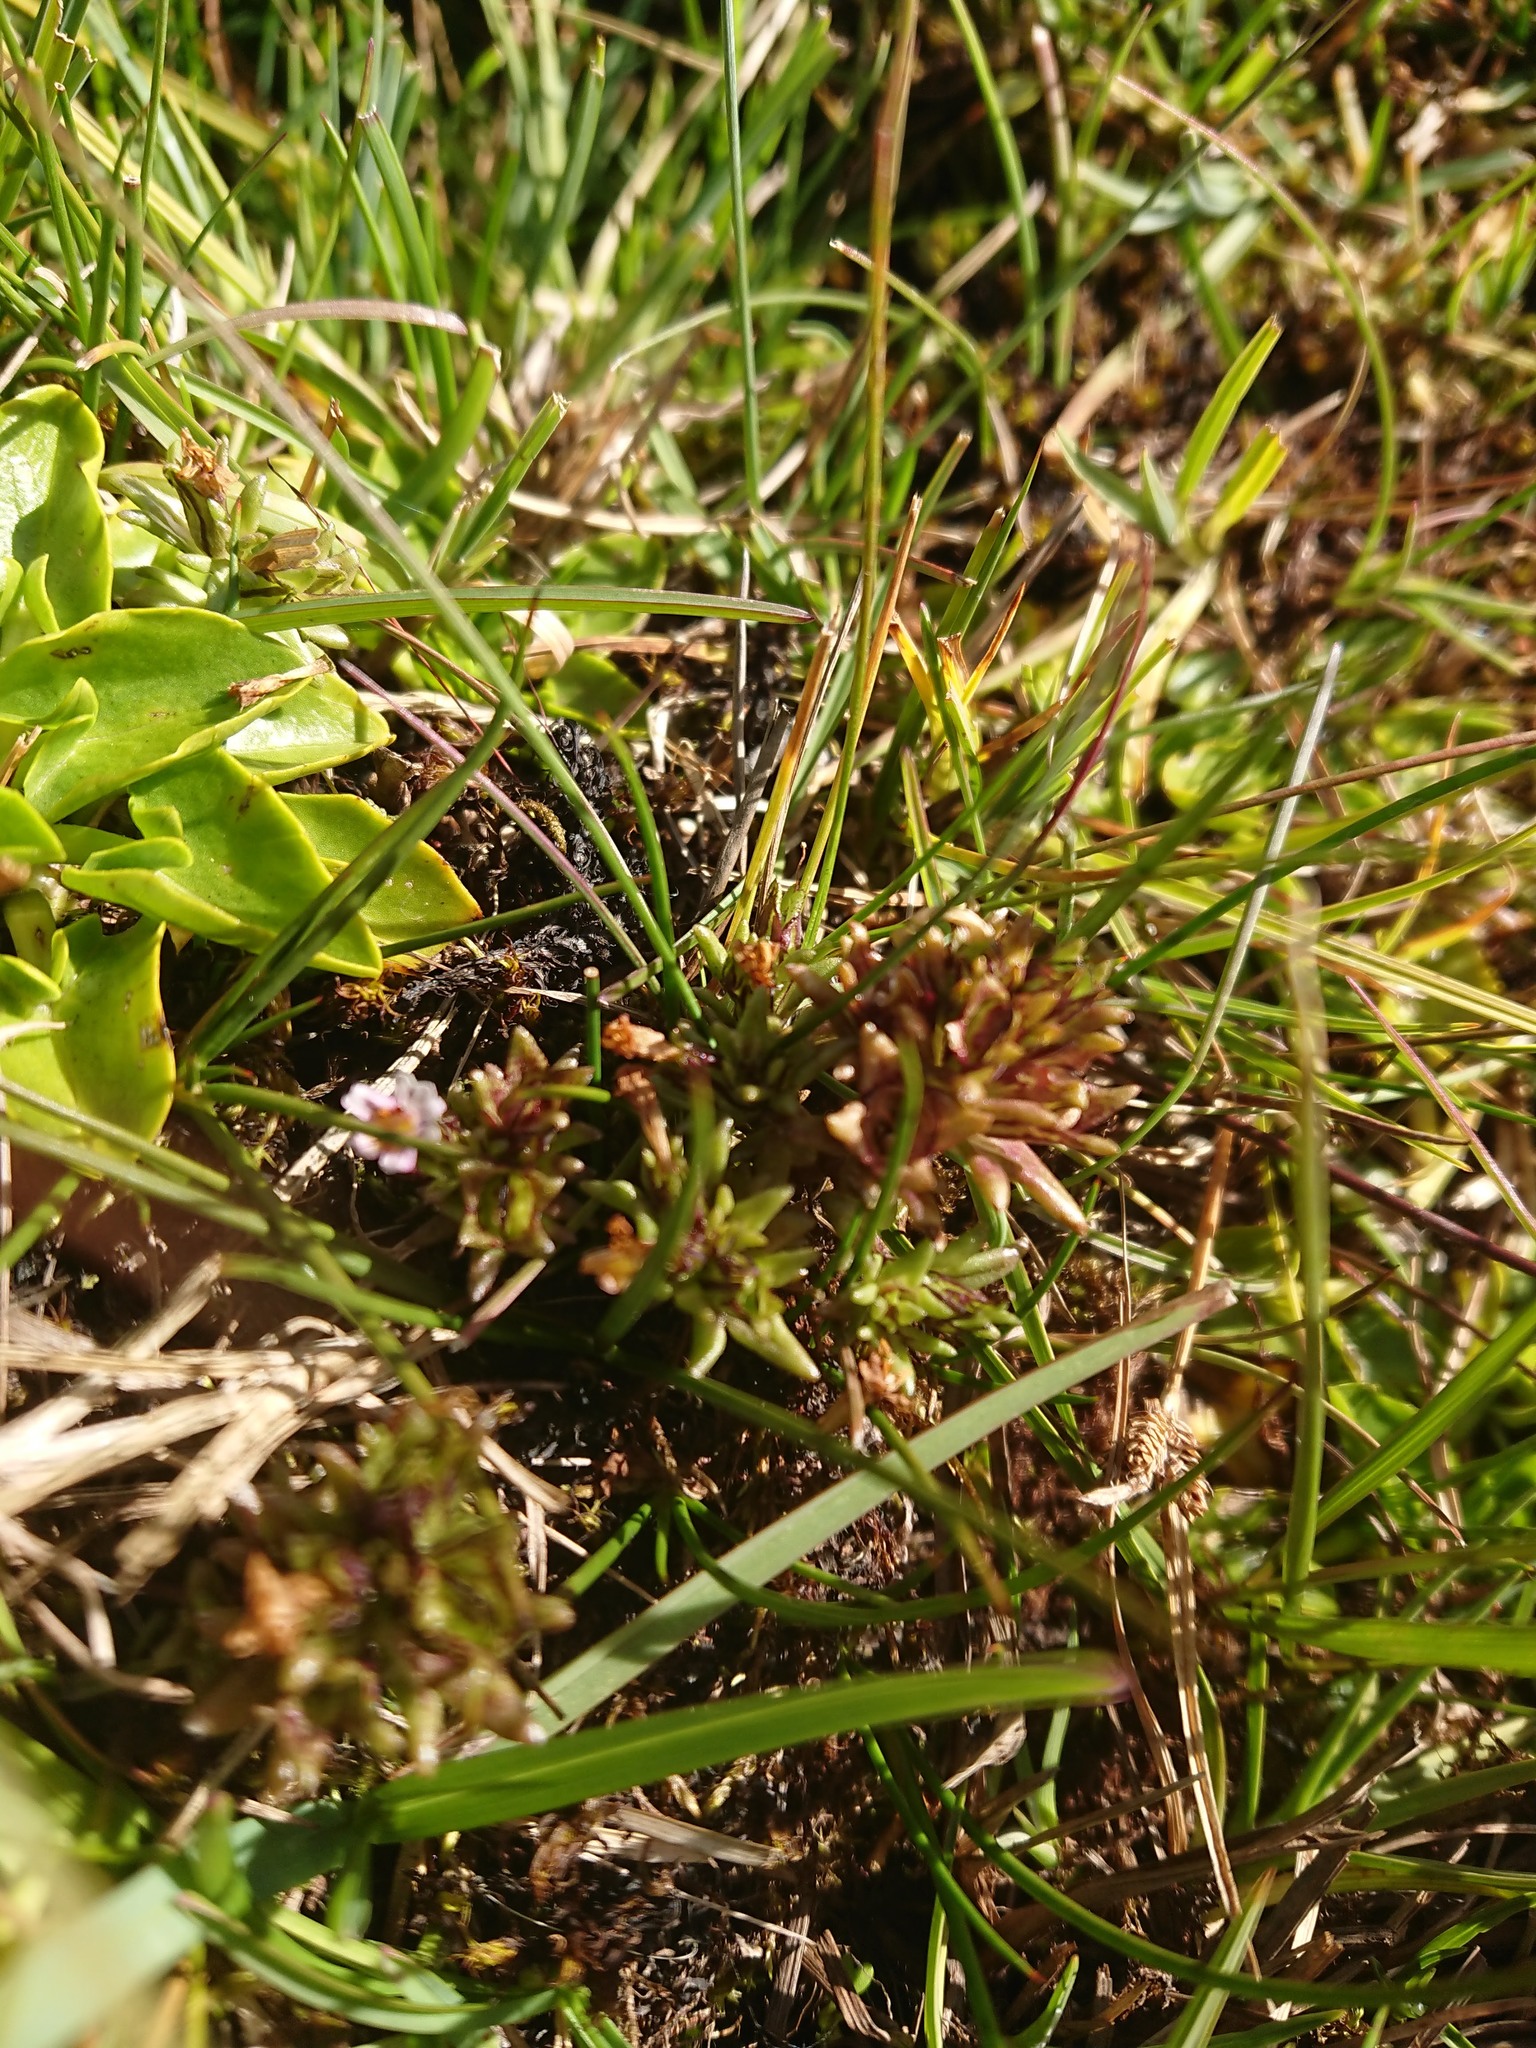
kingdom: Plantae
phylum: Tracheophyta
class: Magnoliopsida
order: Lamiales
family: Orobanchaceae
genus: Euphrasia
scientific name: Euphrasia antarctica
